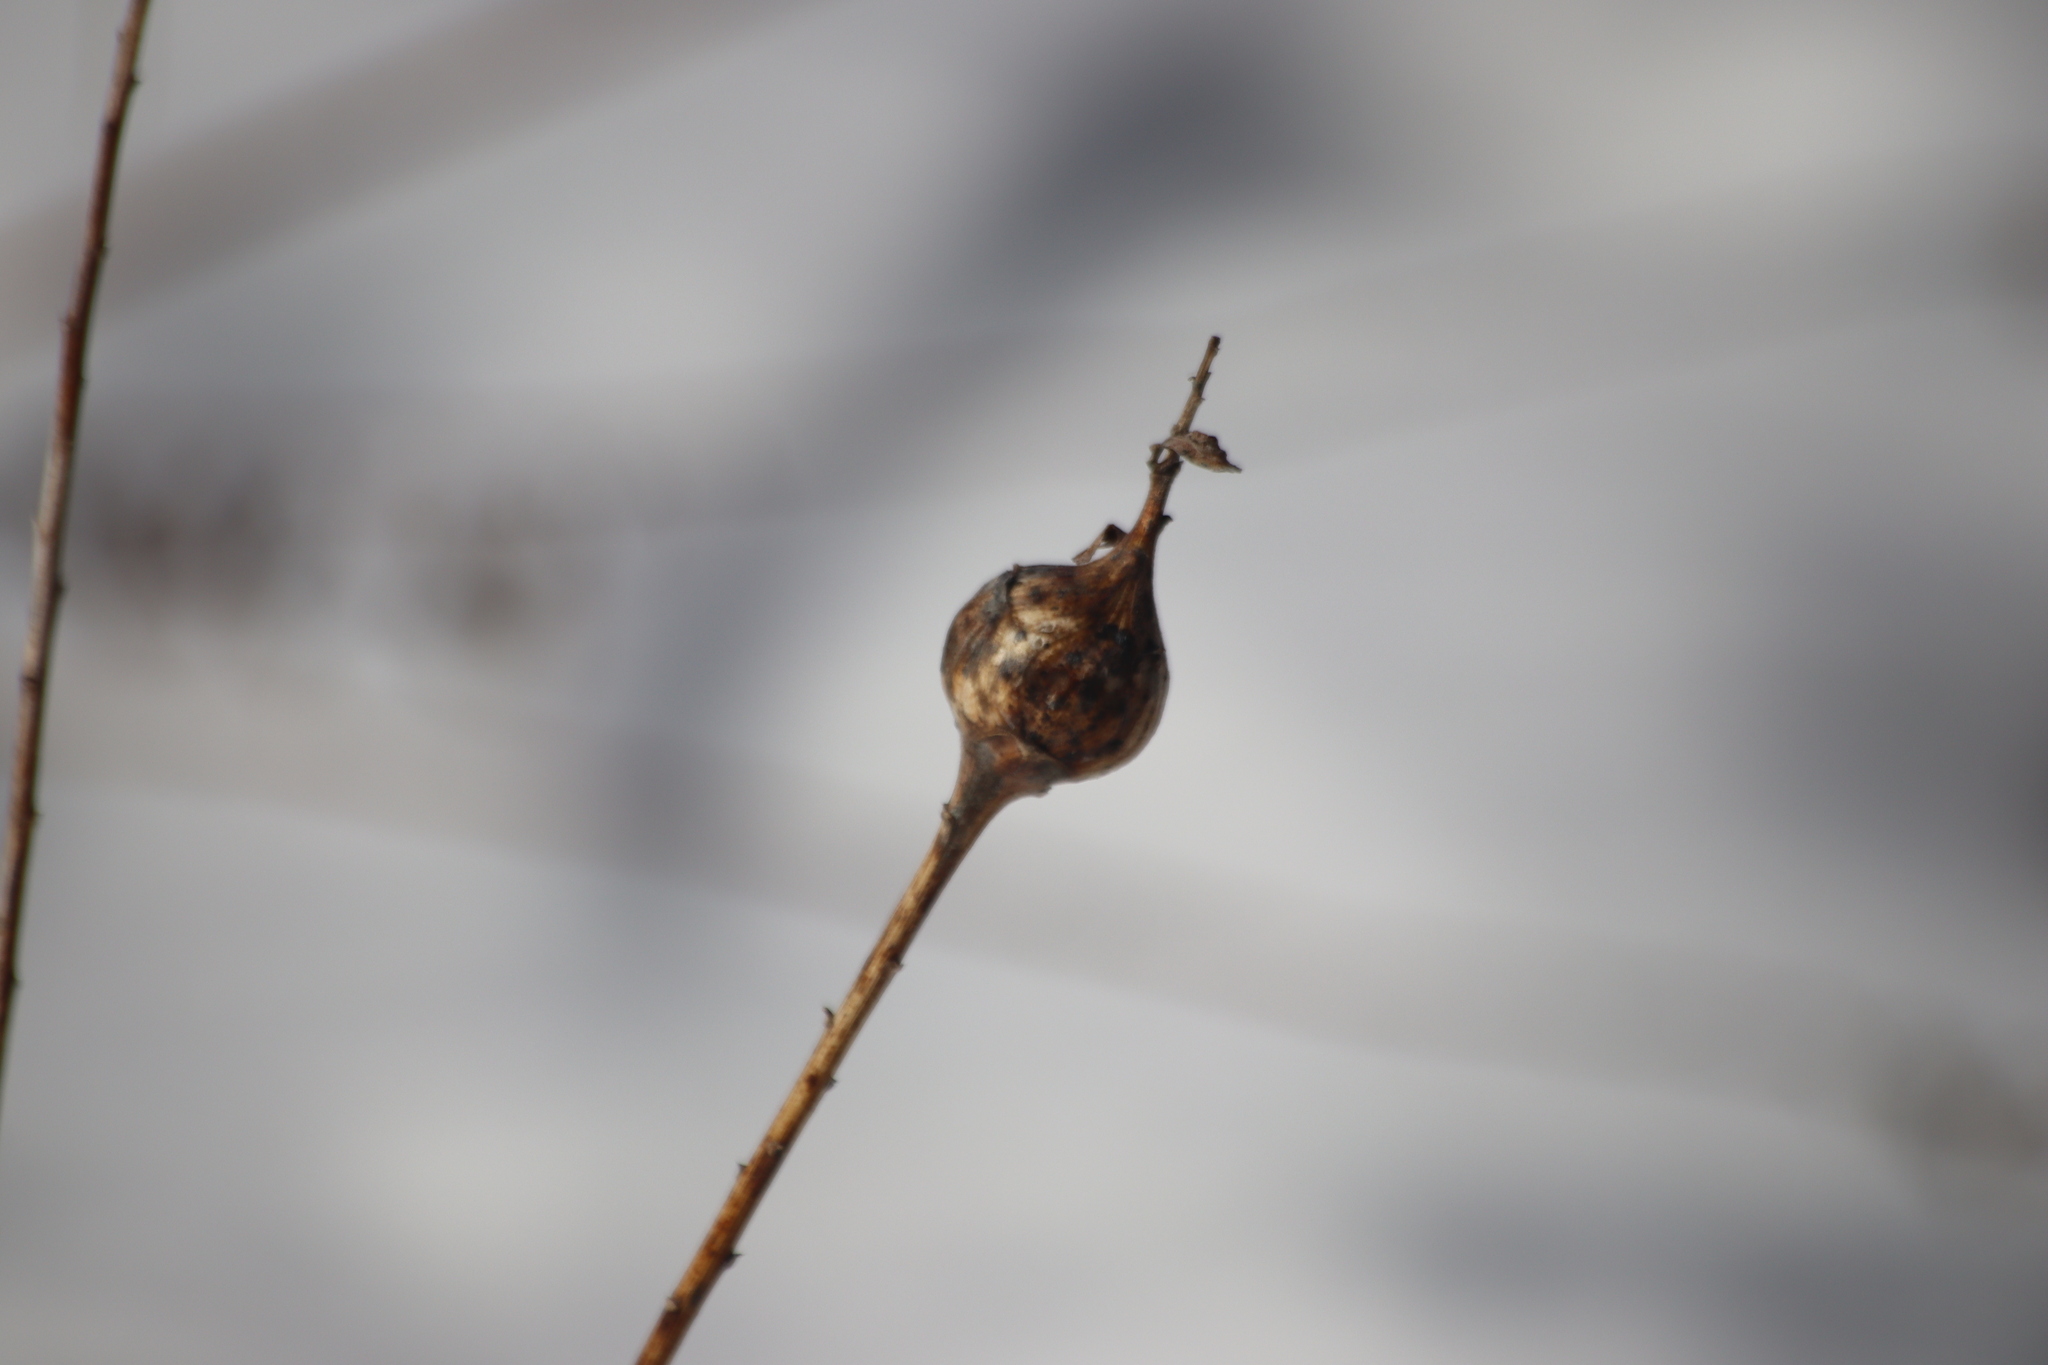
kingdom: Animalia
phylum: Arthropoda
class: Insecta
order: Diptera
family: Tephritidae
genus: Eurosta
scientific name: Eurosta solidaginis
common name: Goldenrod gall fly
